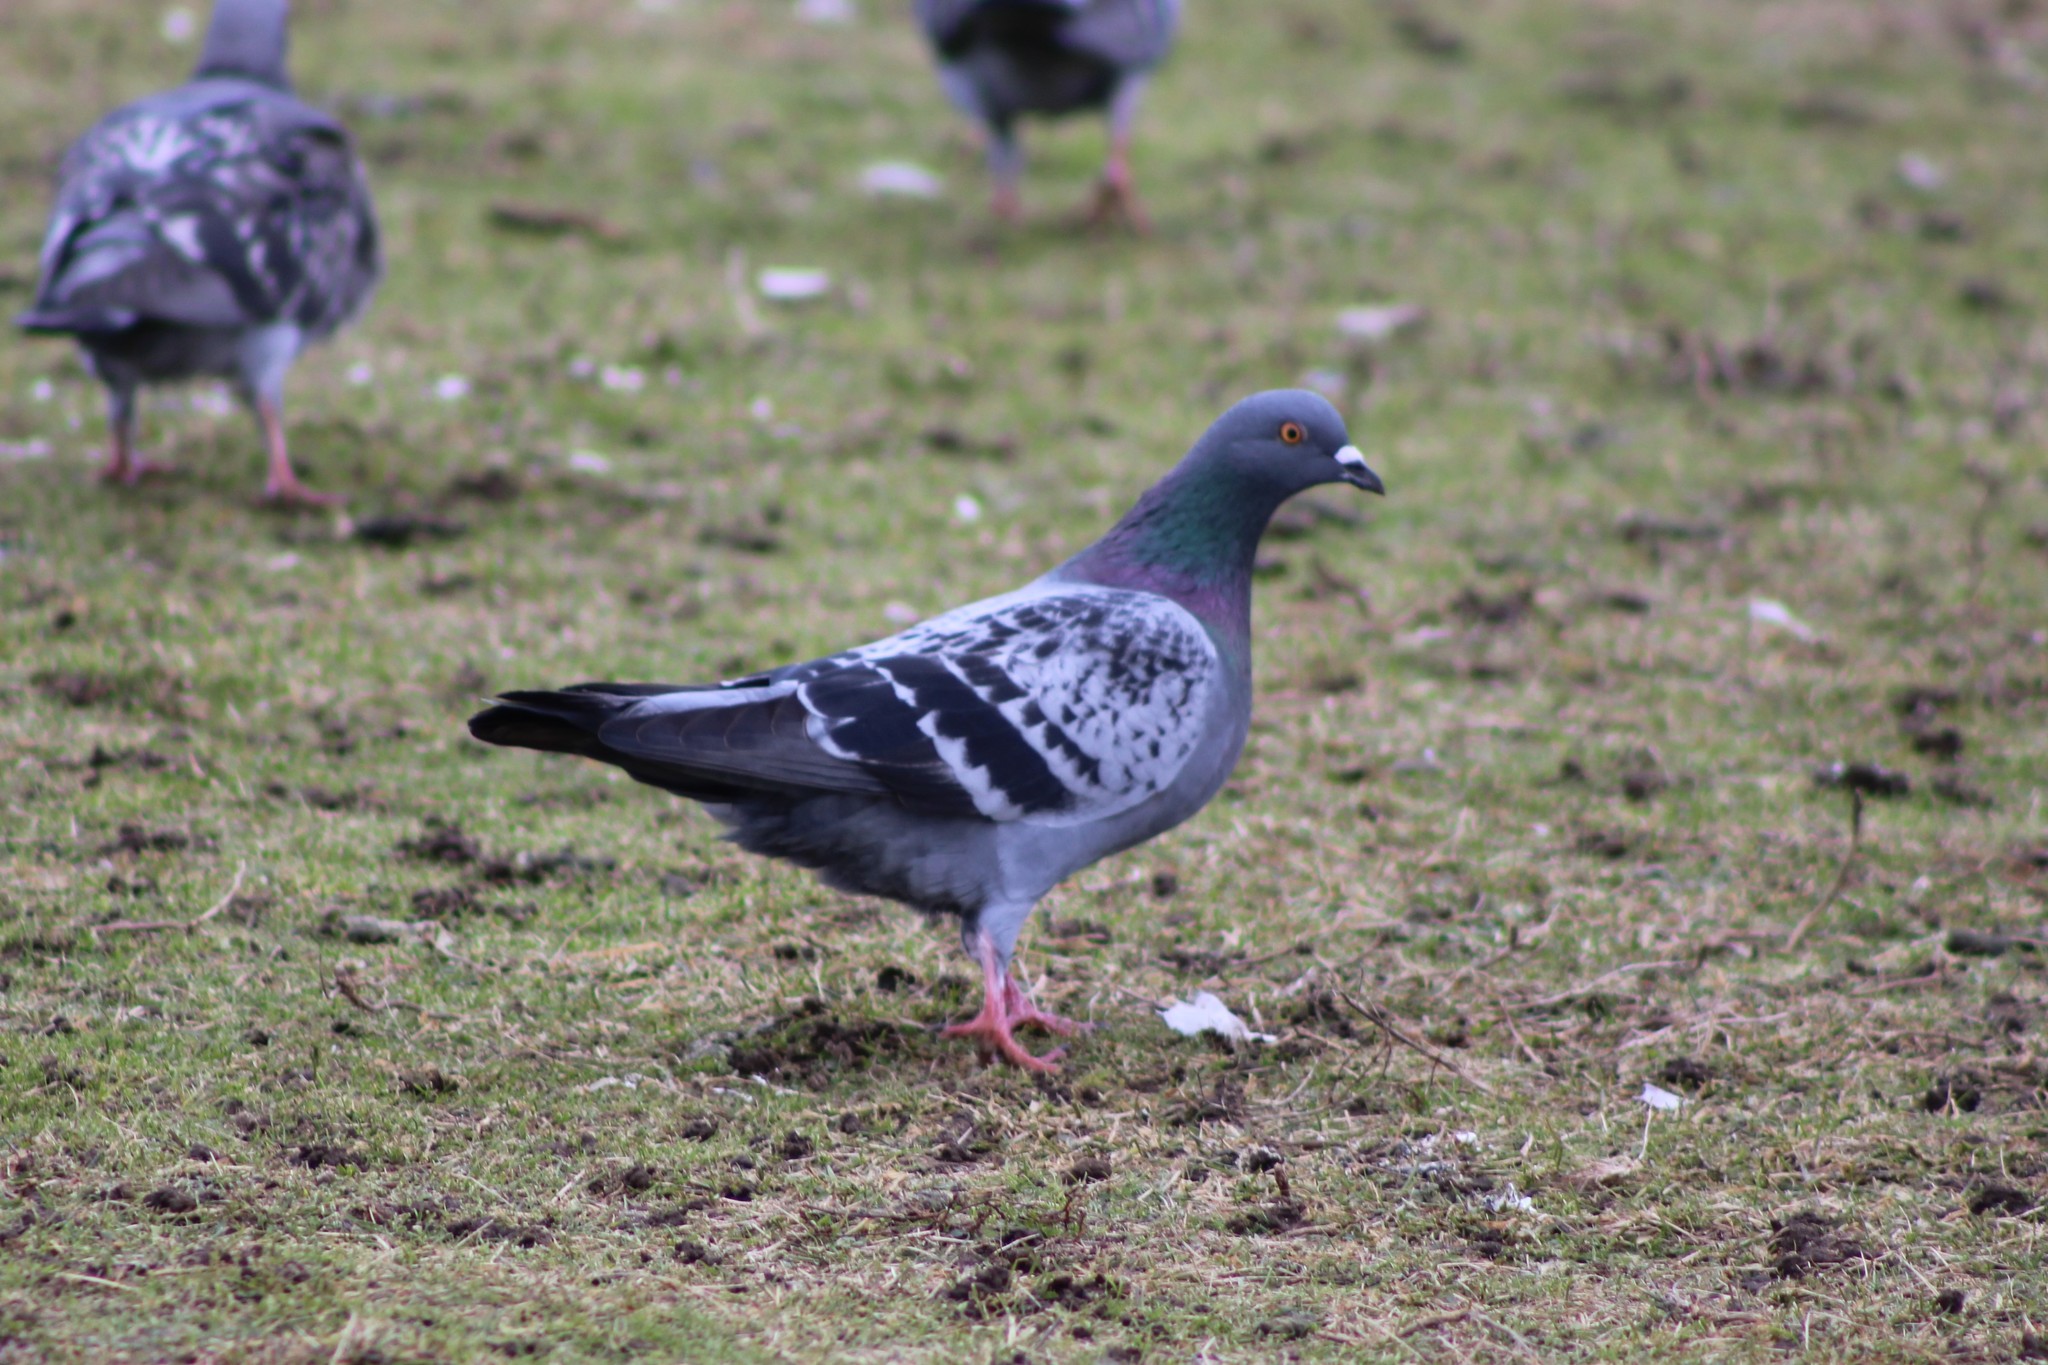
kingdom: Animalia
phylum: Chordata
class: Aves
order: Columbiformes
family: Columbidae
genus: Columba
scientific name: Columba livia
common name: Rock pigeon
